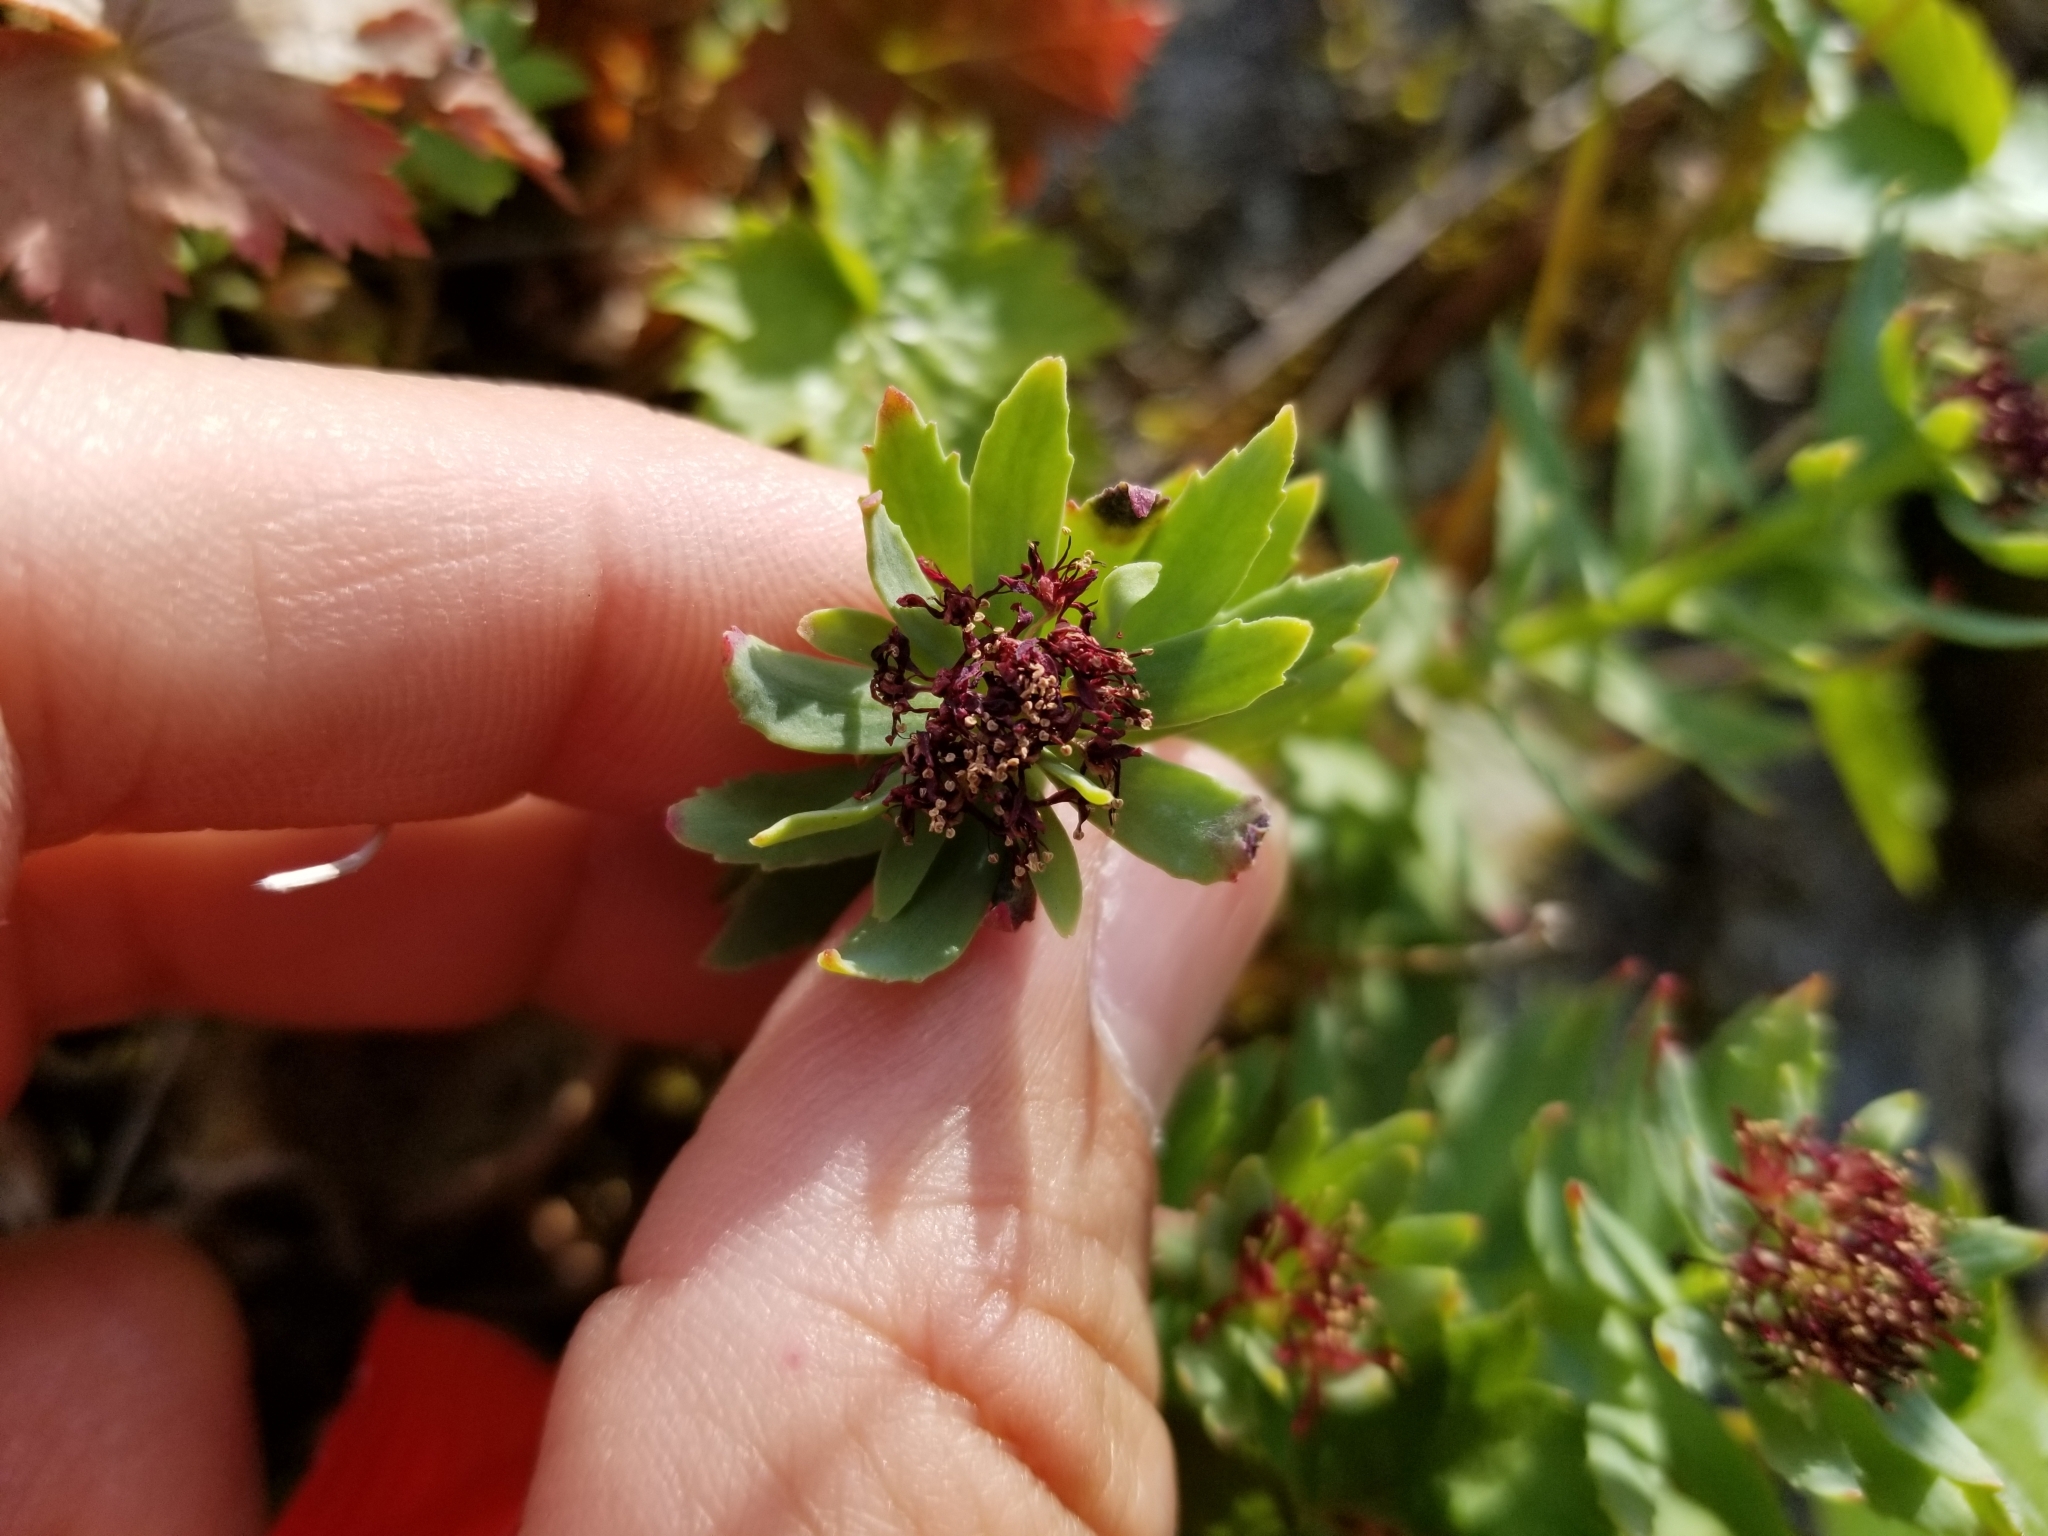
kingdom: Plantae
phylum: Tracheophyta
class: Magnoliopsida
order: Saxifragales
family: Crassulaceae
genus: Rhodiola
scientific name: Rhodiola integrifolia
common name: Western roseroot
